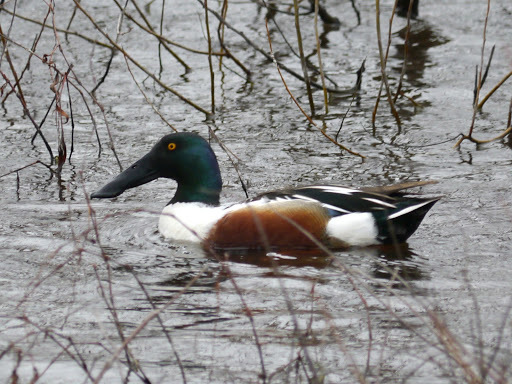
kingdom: Animalia
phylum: Chordata
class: Aves
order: Anseriformes
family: Anatidae
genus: Spatula
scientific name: Spatula clypeata
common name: Northern shoveler
